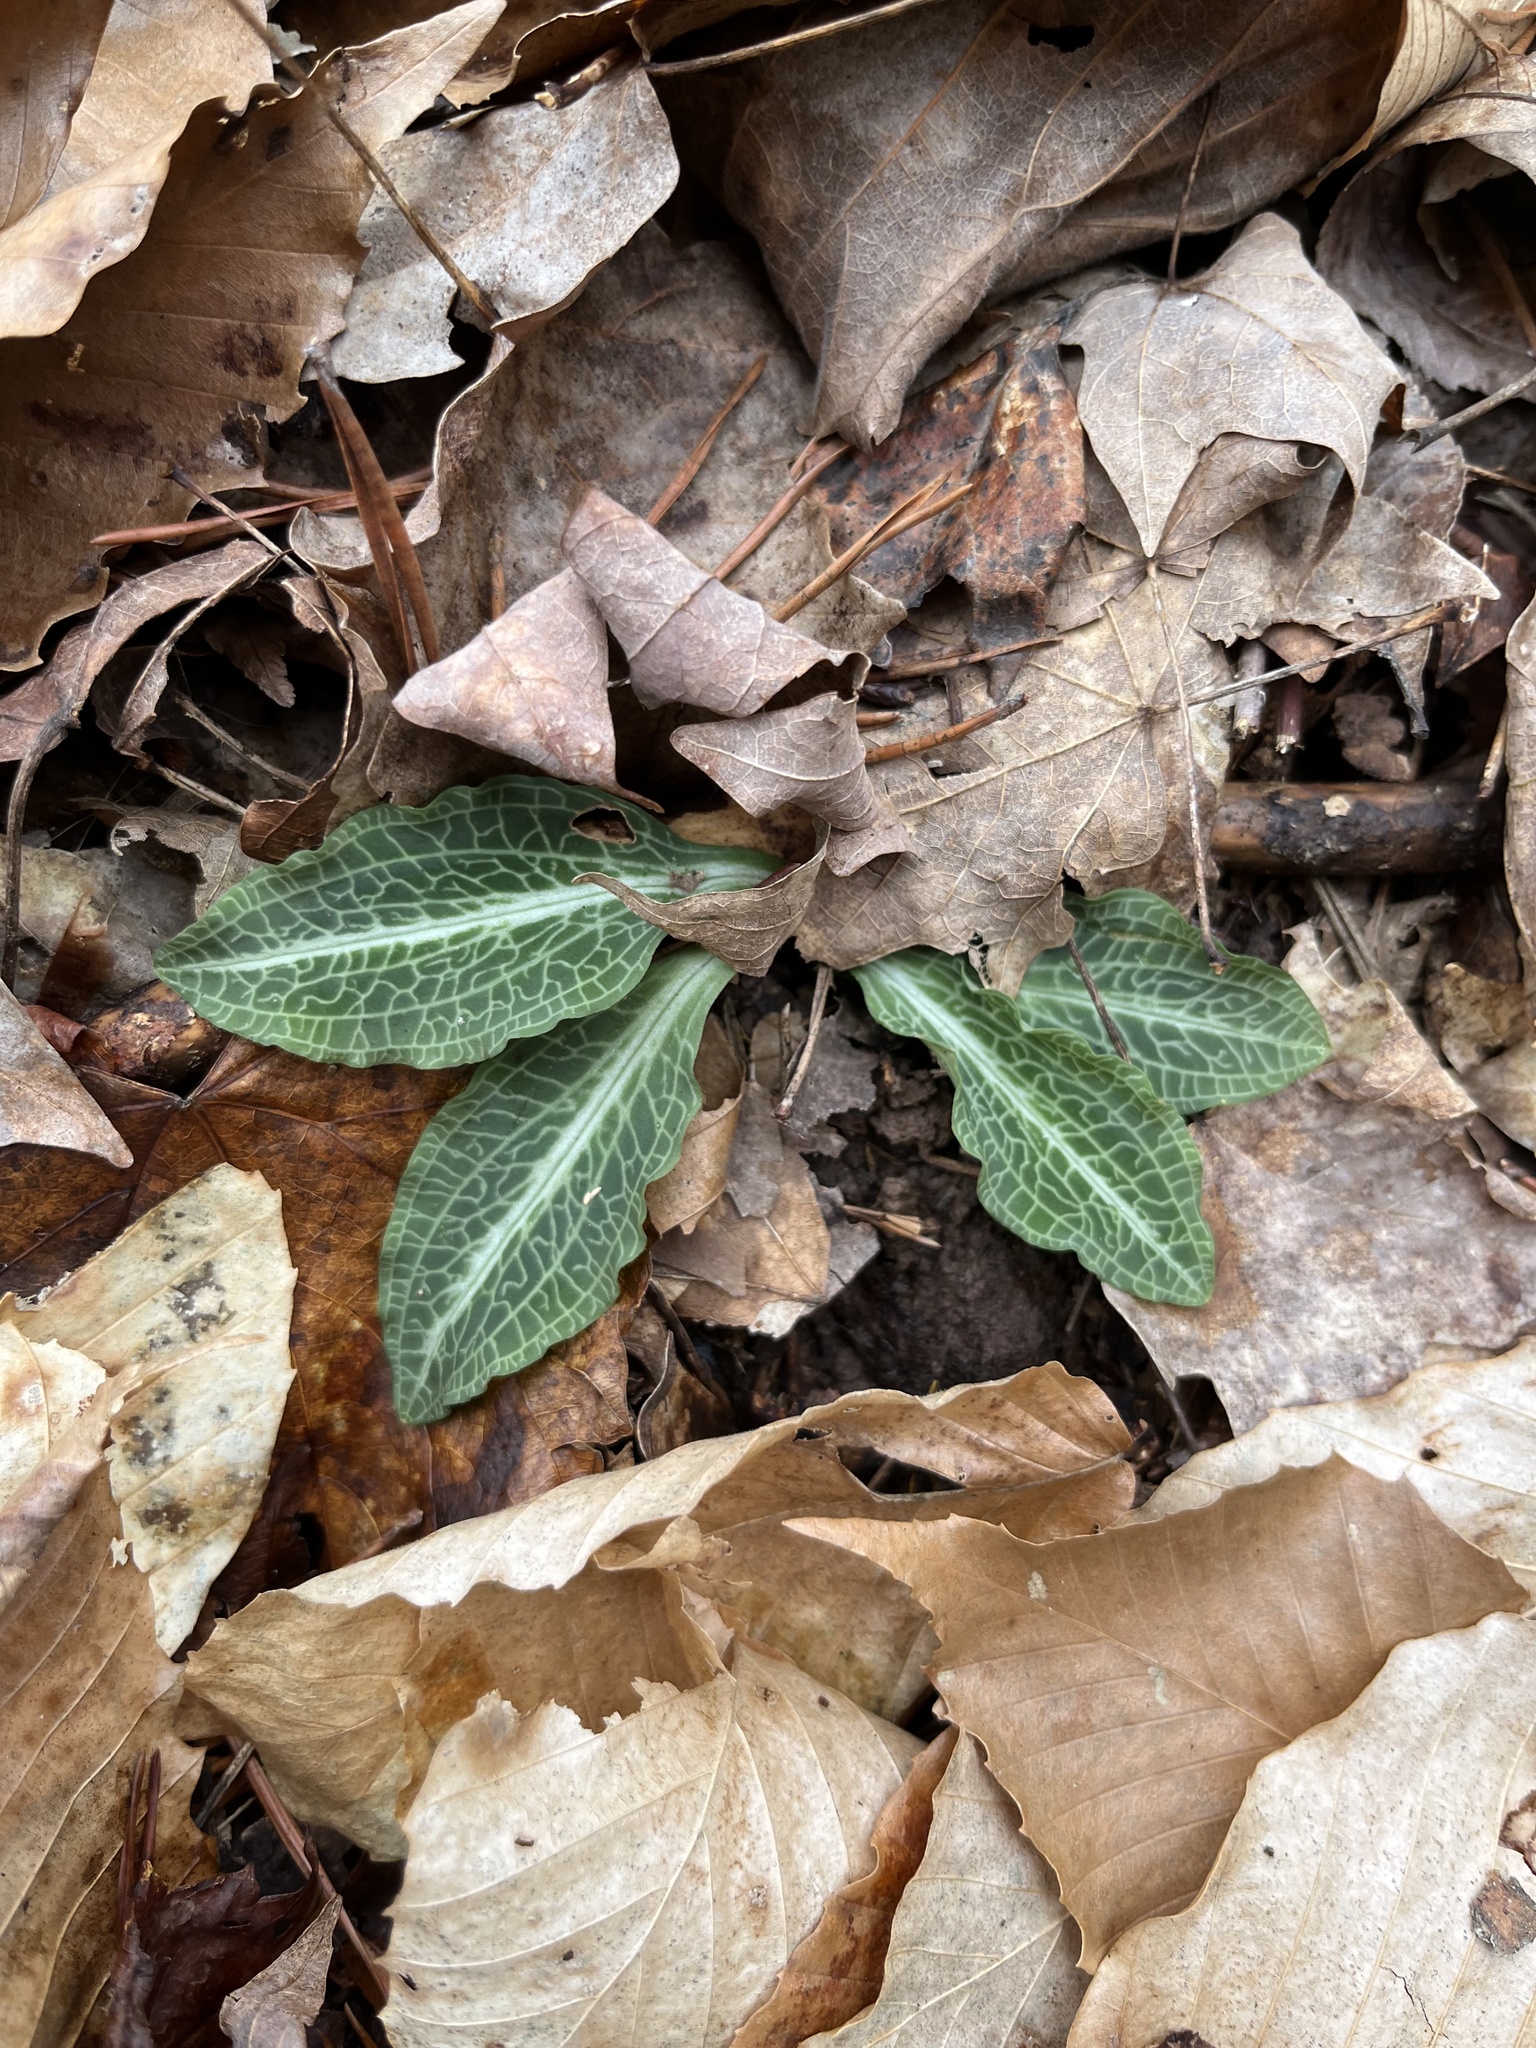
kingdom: Plantae
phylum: Tracheophyta
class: Liliopsida
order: Asparagales
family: Orchidaceae
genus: Goodyera
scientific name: Goodyera pubescens
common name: Downy rattlesnake-plantain
